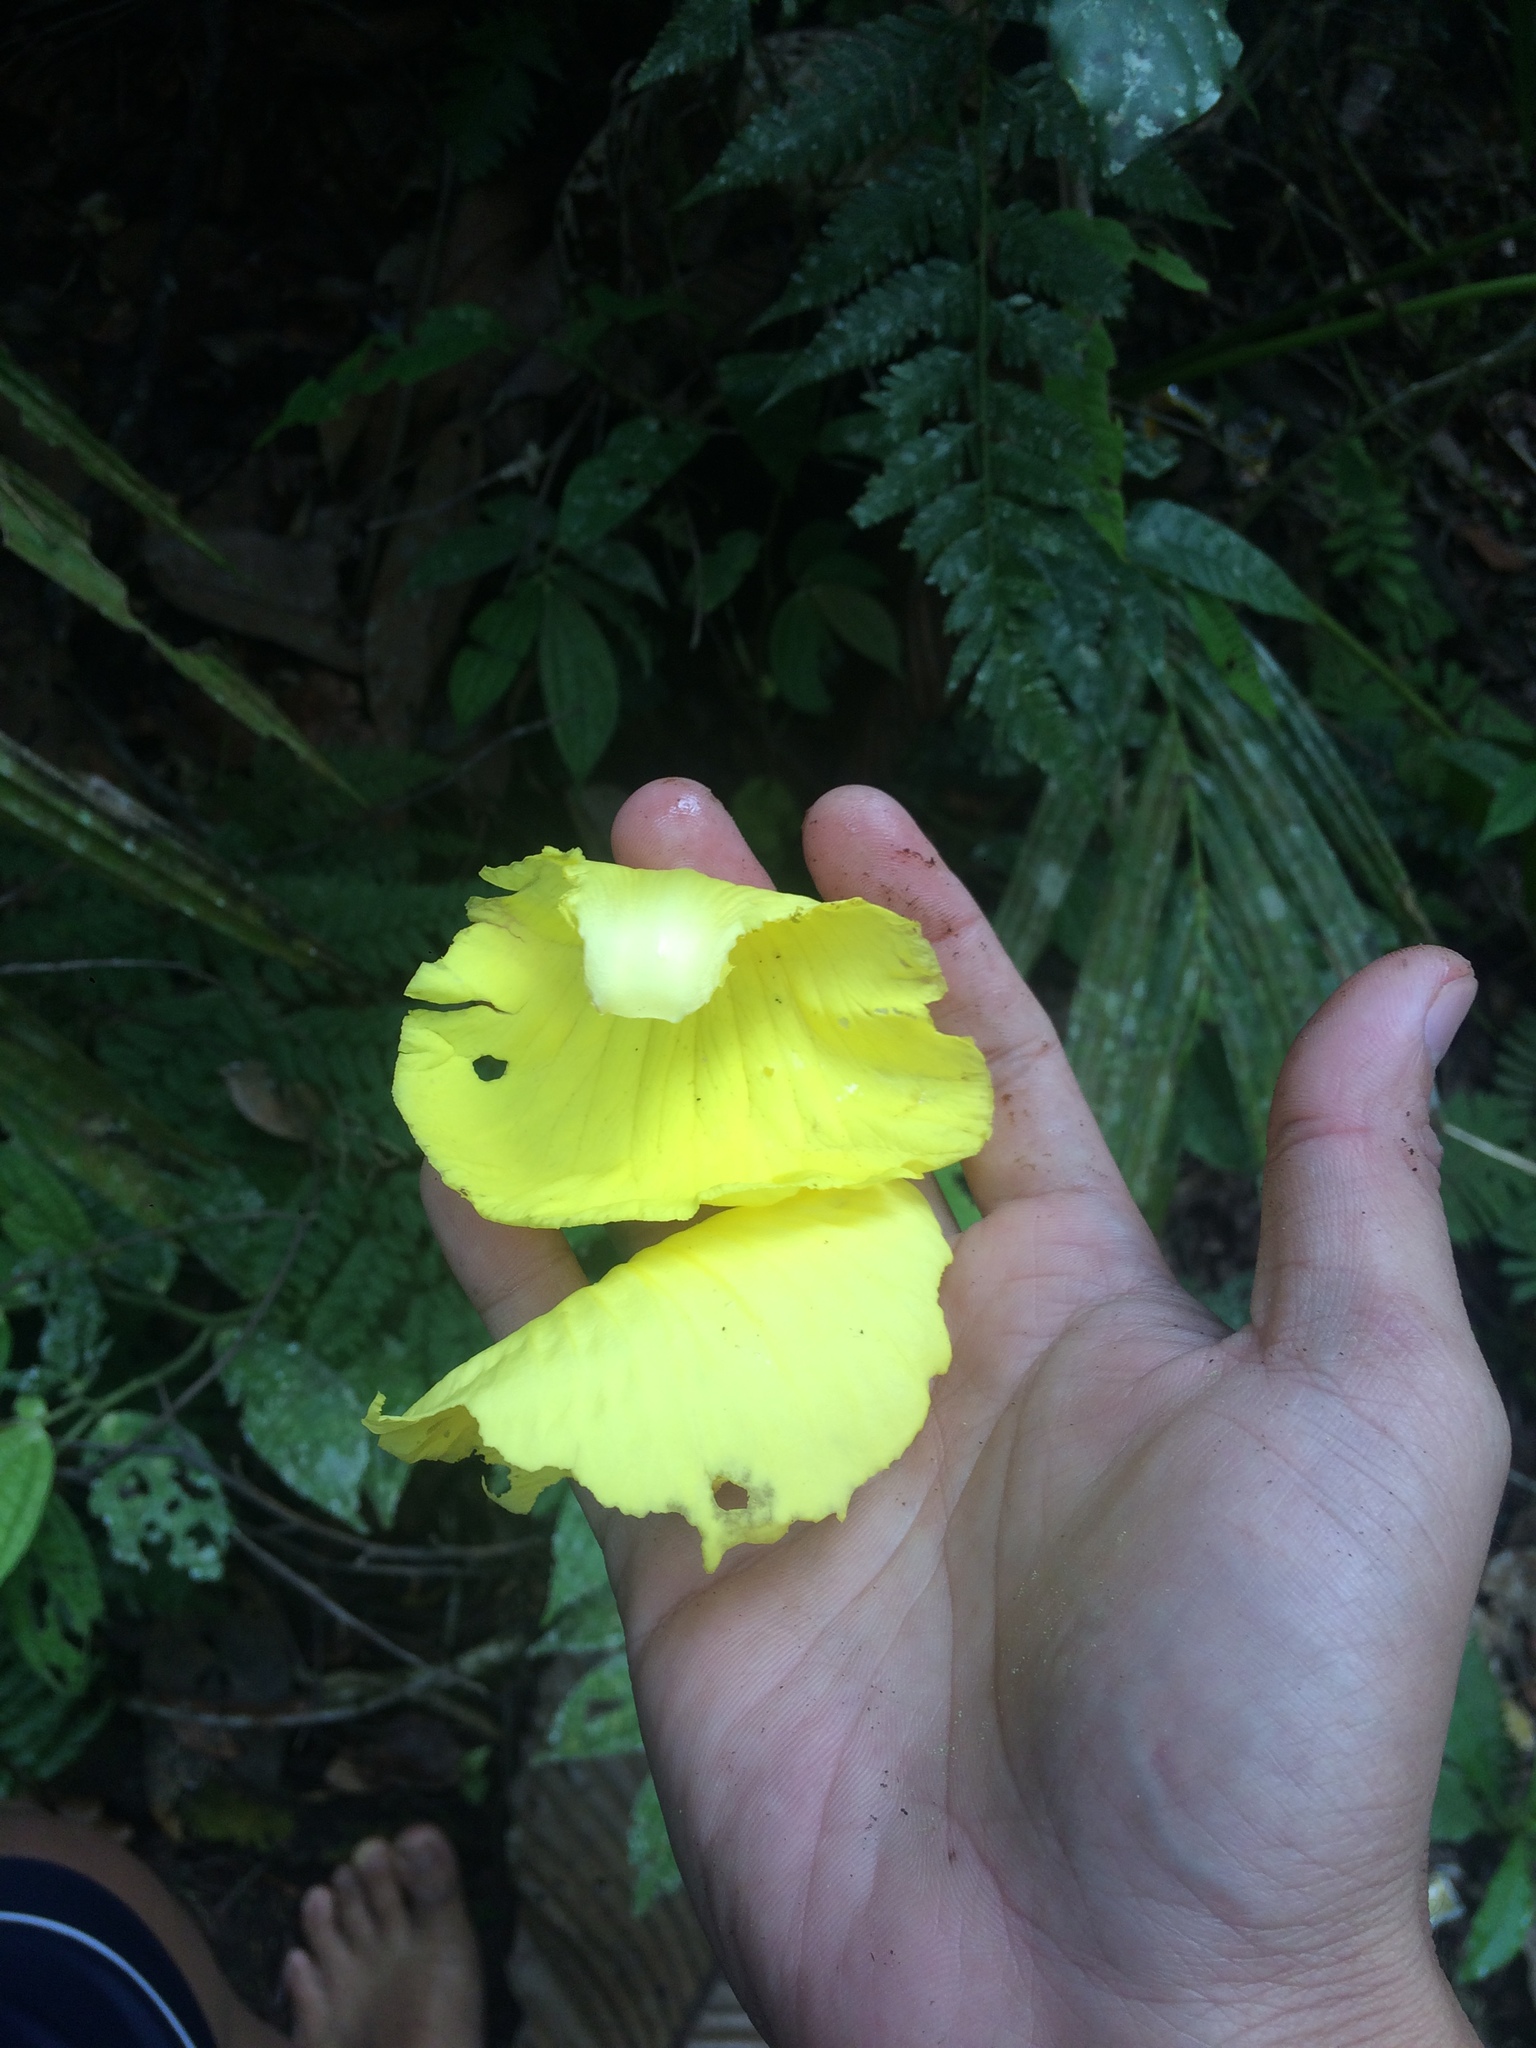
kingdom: Plantae
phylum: Tracheophyta
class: Magnoliopsida
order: Dilleniales
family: Dilleniaceae
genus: Dillenia
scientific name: Dillenia philippinensis
